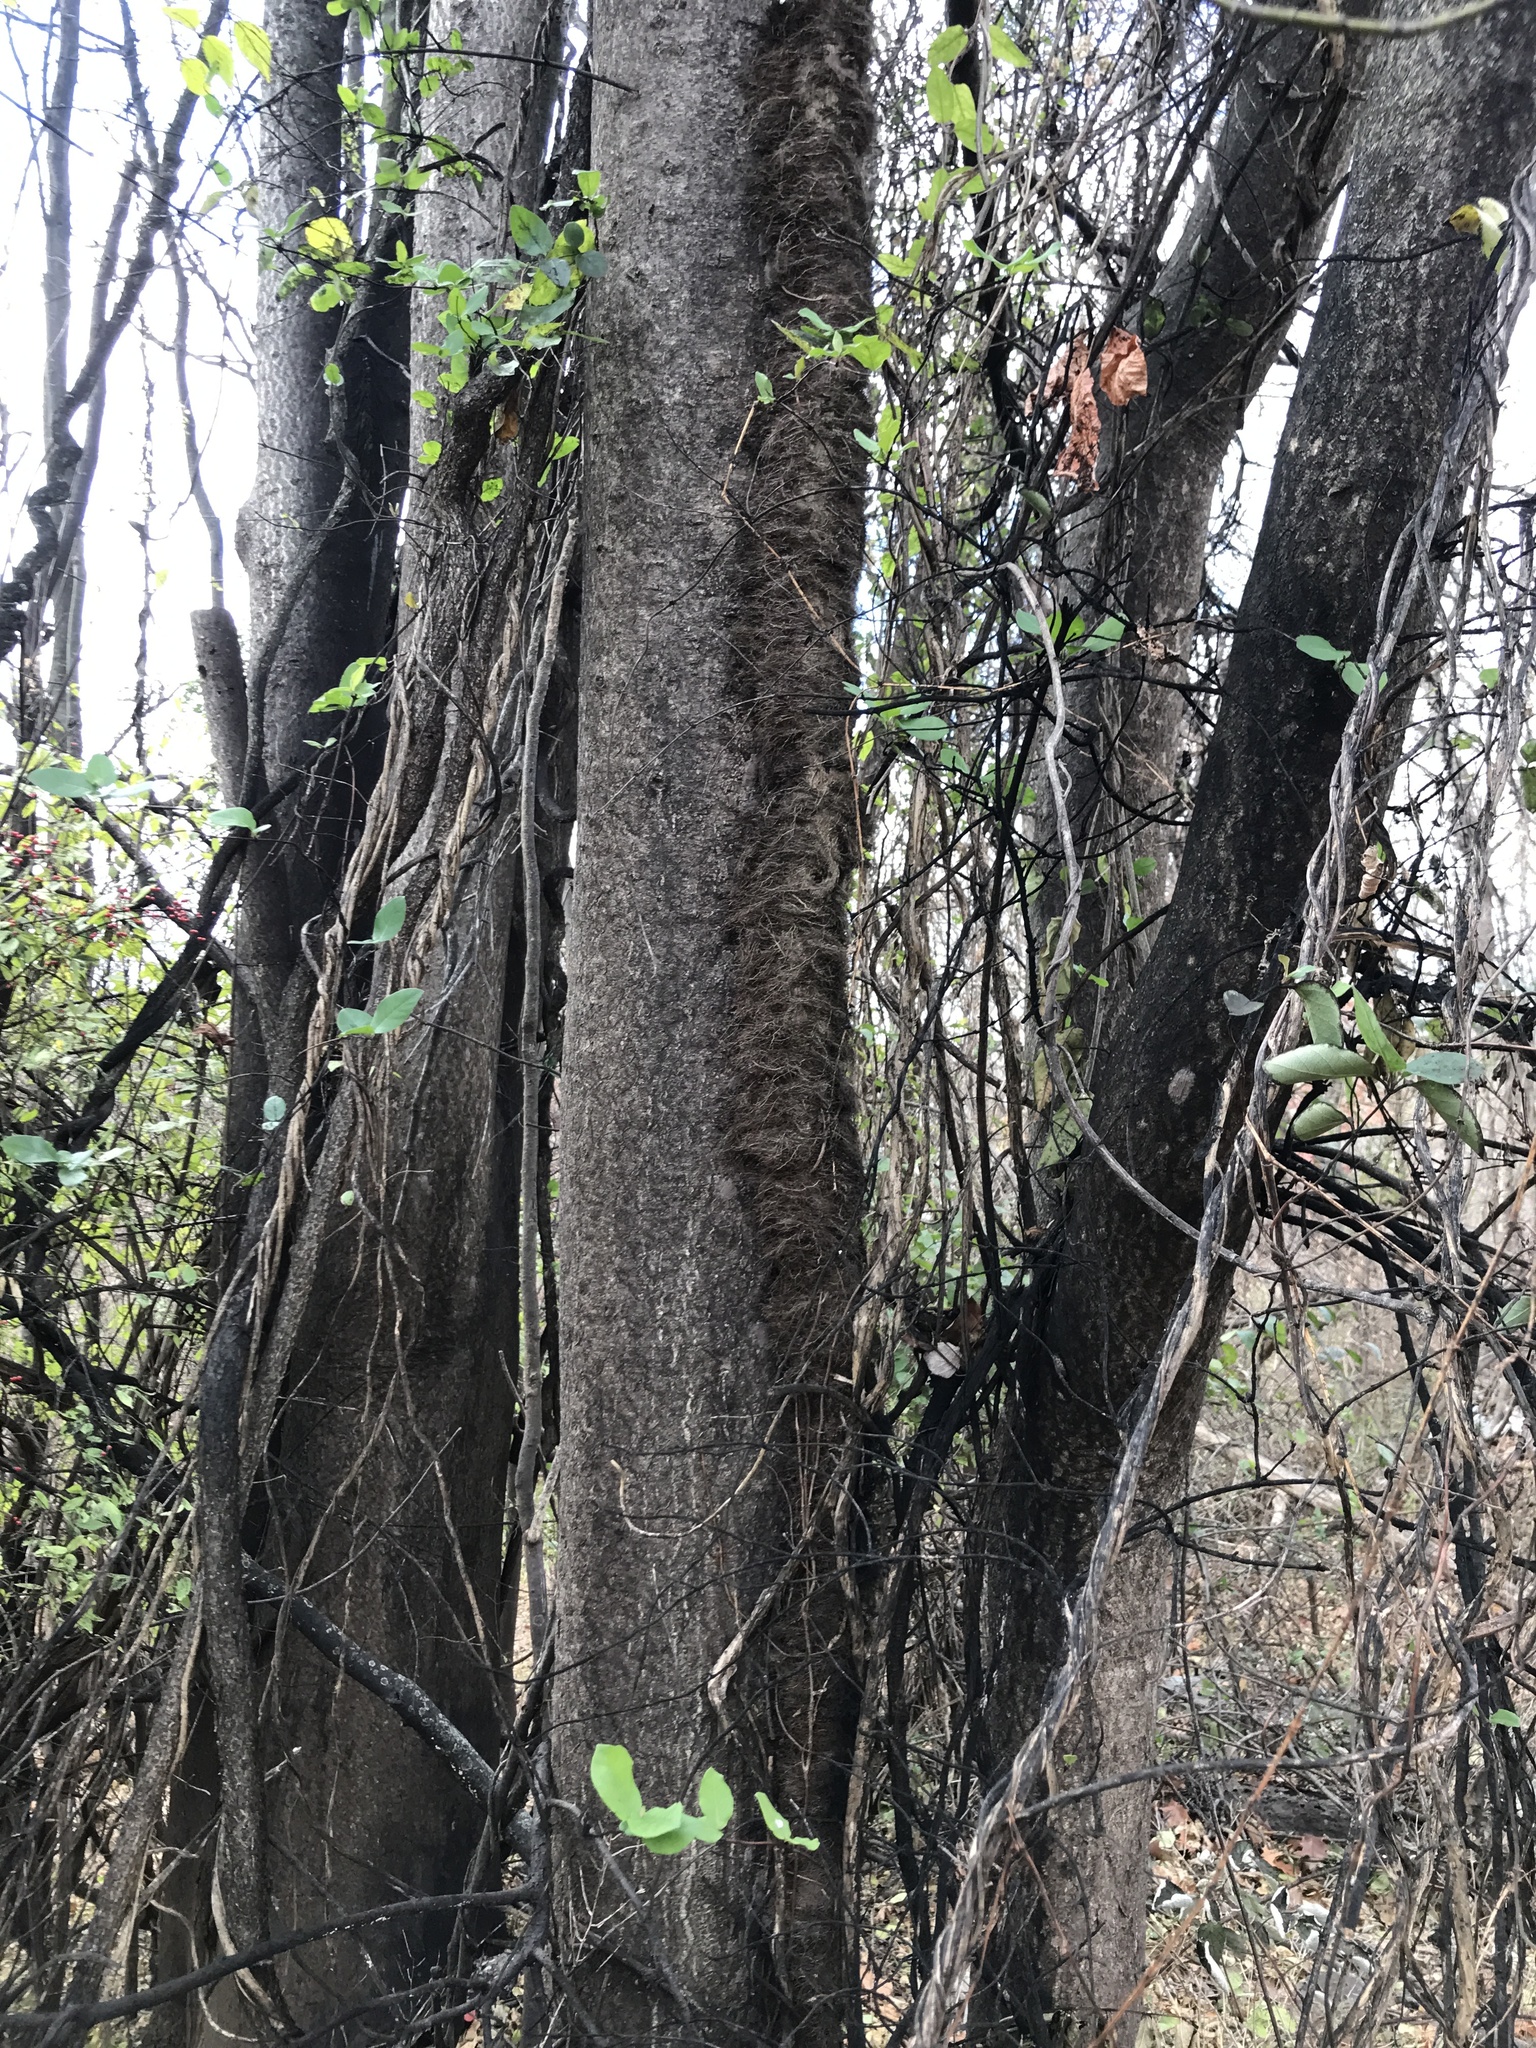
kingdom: Plantae
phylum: Tracheophyta
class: Magnoliopsida
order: Sapindales
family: Simaroubaceae
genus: Ailanthus
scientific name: Ailanthus altissima
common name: Tree-of-heaven
